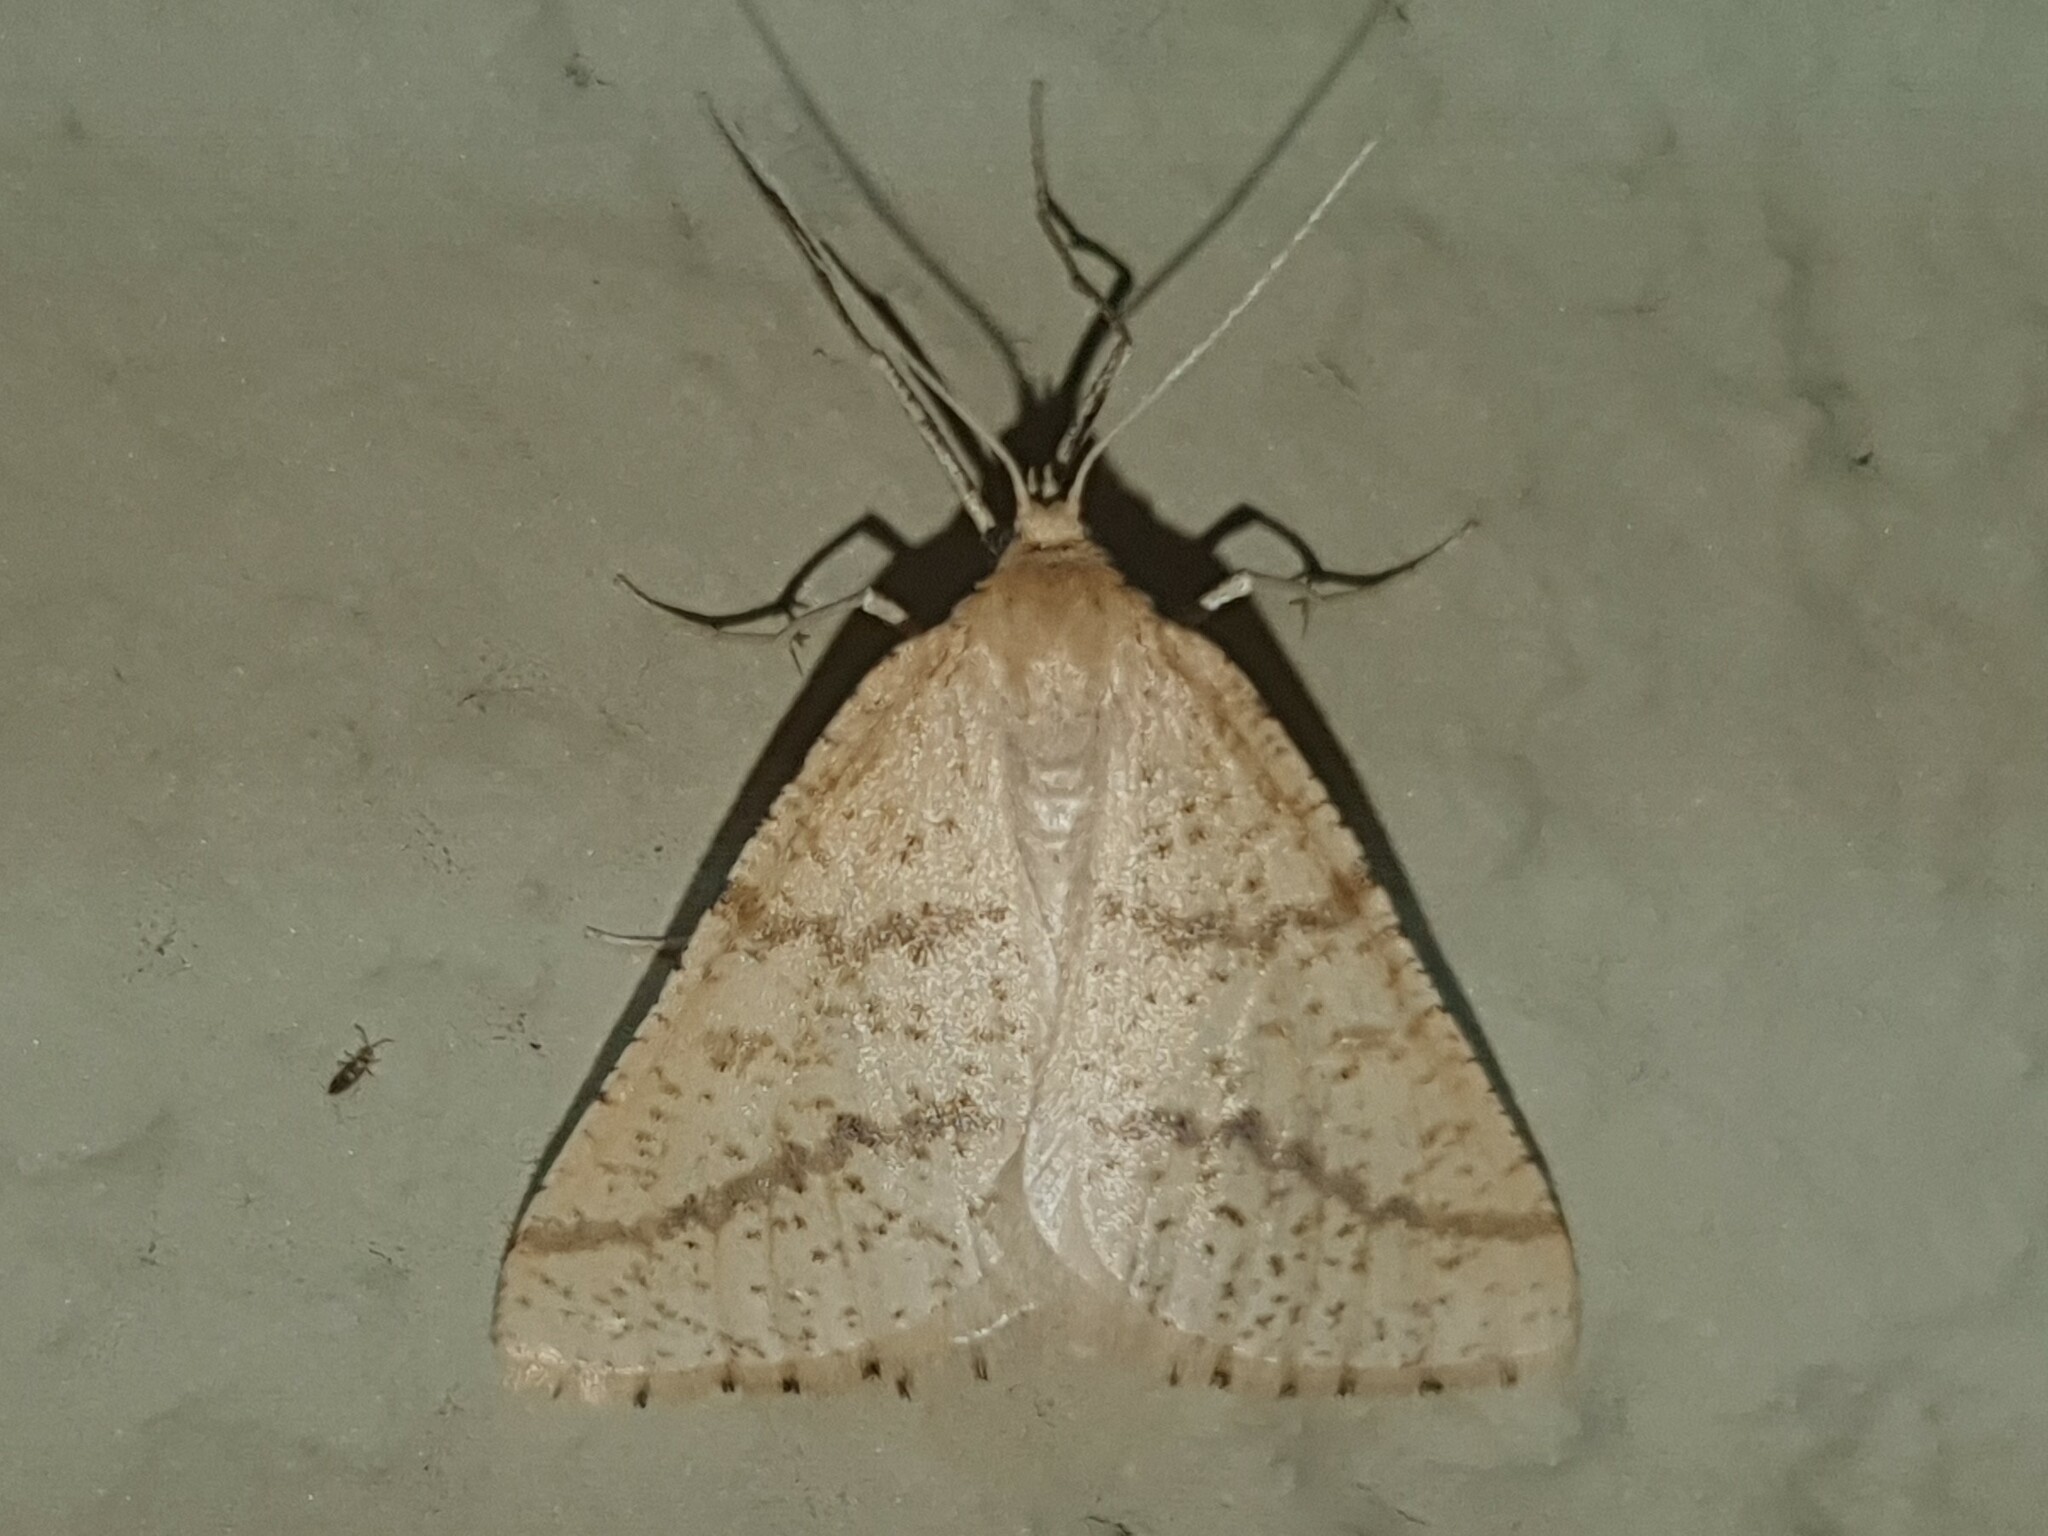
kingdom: Animalia
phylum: Arthropoda
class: Insecta
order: Lepidoptera
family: Geometridae
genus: Aspitates
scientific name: Aspitates ochrearia
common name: Yellow belle
